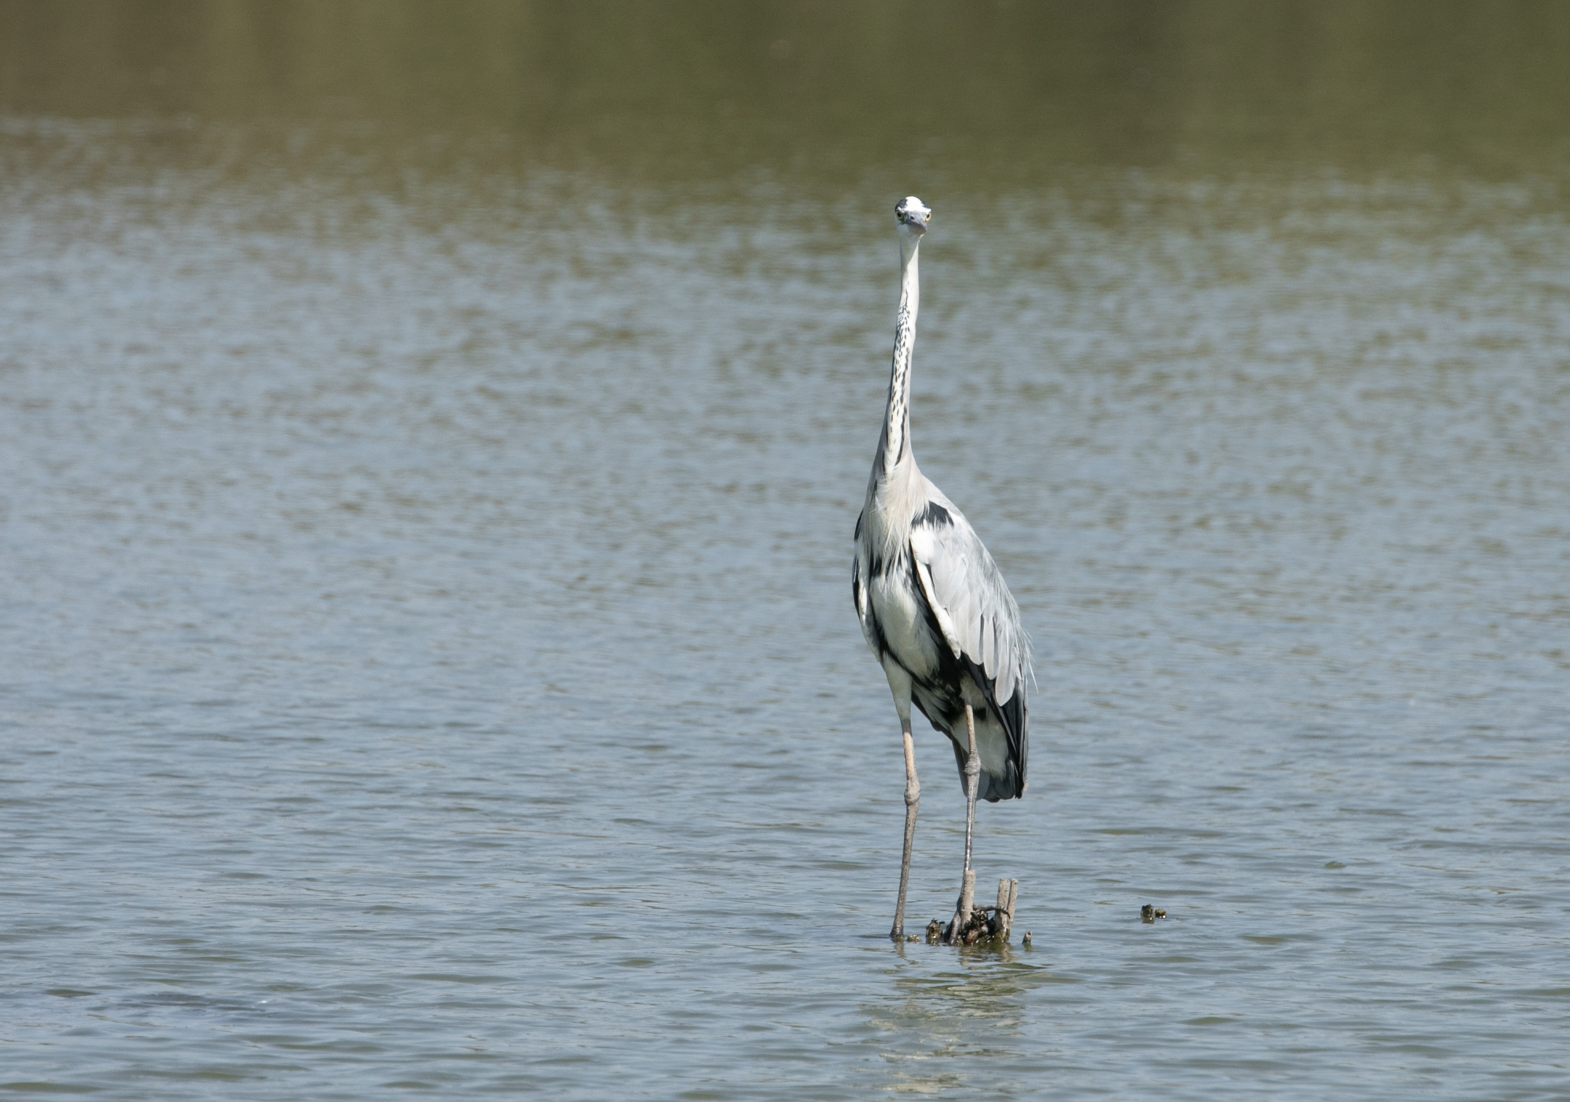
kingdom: Animalia
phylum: Chordata
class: Aves
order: Pelecaniformes
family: Ardeidae
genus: Ardea
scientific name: Ardea cinerea
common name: Grey heron
